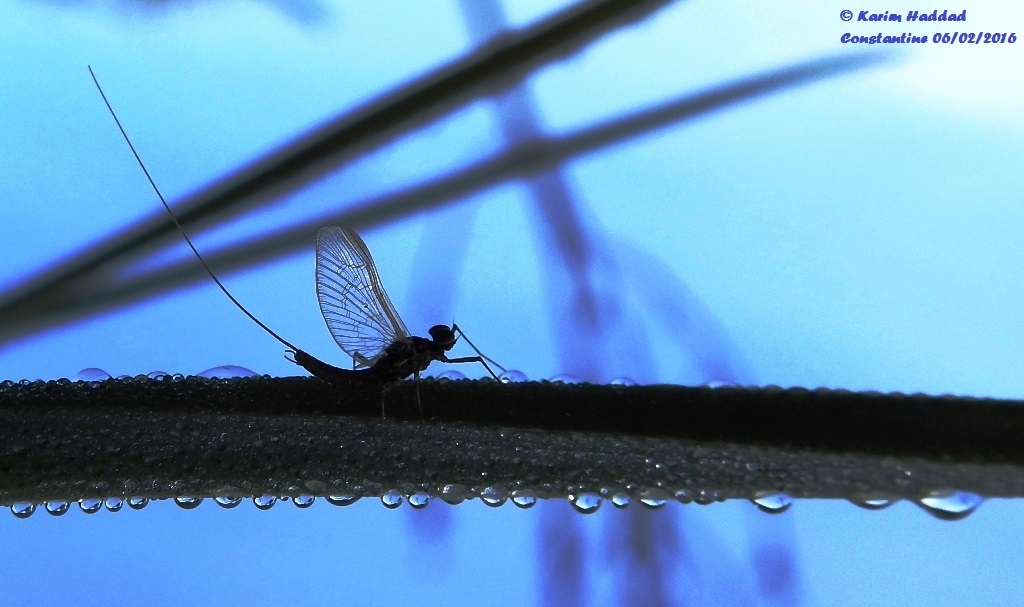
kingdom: Animalia
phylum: Arthropoda
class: Insecta
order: Ephemeroptera
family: Baetidae
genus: Baetis
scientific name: Baetis rhodani
